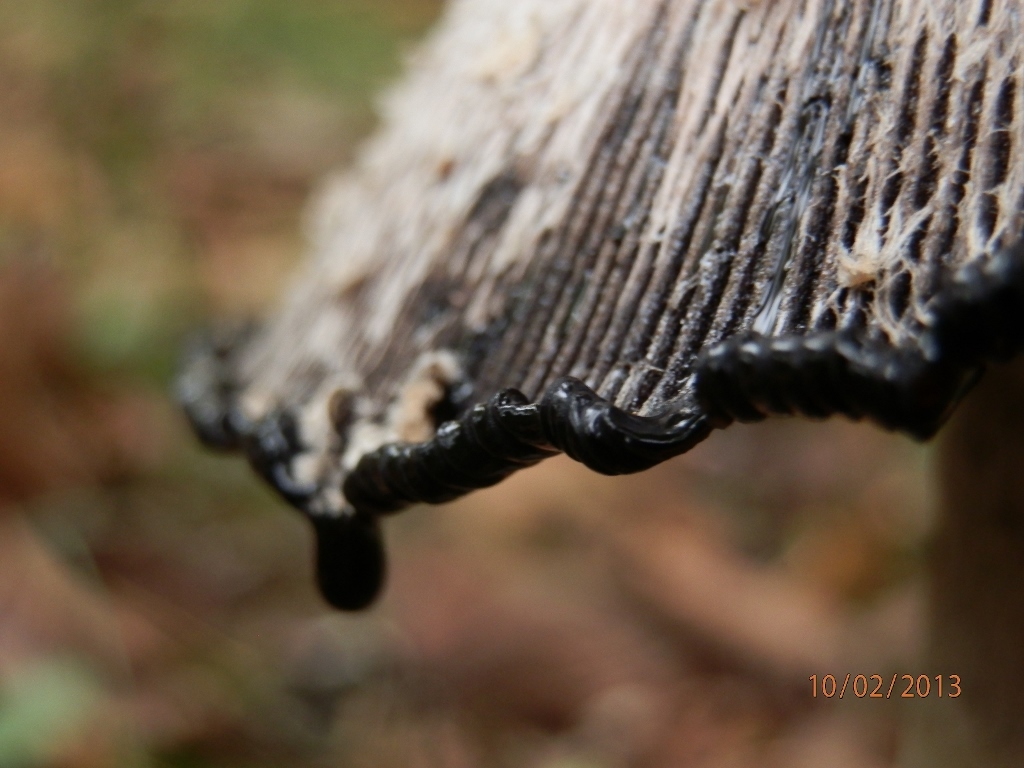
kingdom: Fungi
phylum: Basidiomycota
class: Agaricomycetes
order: Agaricales
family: Agaricaceae
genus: Coprinus
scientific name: Coprinus comatus
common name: Lawyer's wig
